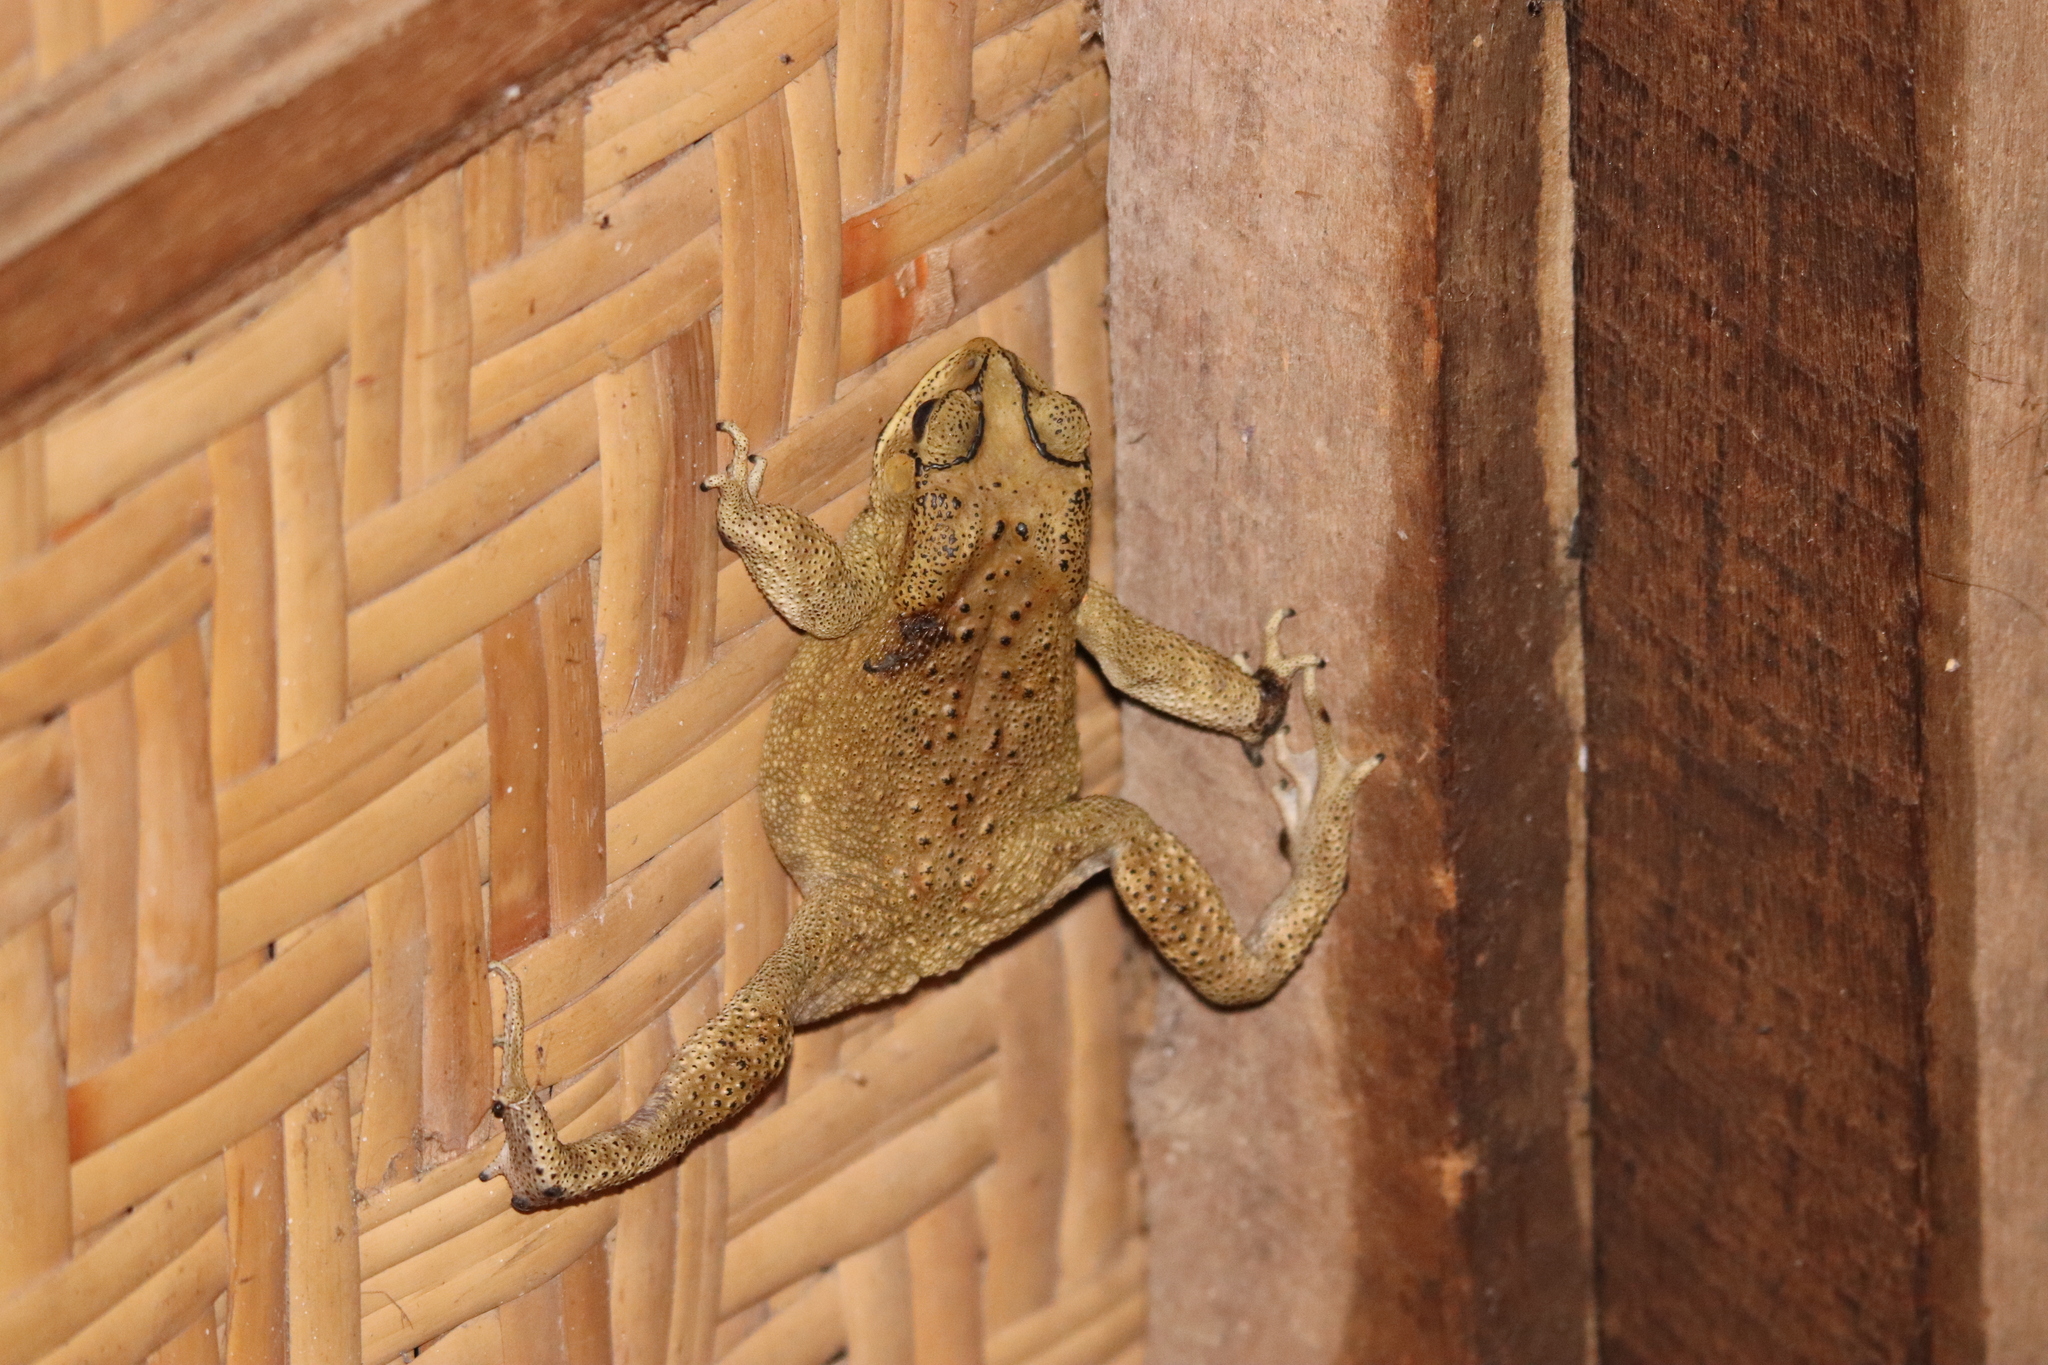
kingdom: Animalia
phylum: Chordata
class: Amphibia
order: Anura
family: Bufonidae
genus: Duttaphrynus
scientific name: Duttaphrynus melanostictus
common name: Common sunda toad
